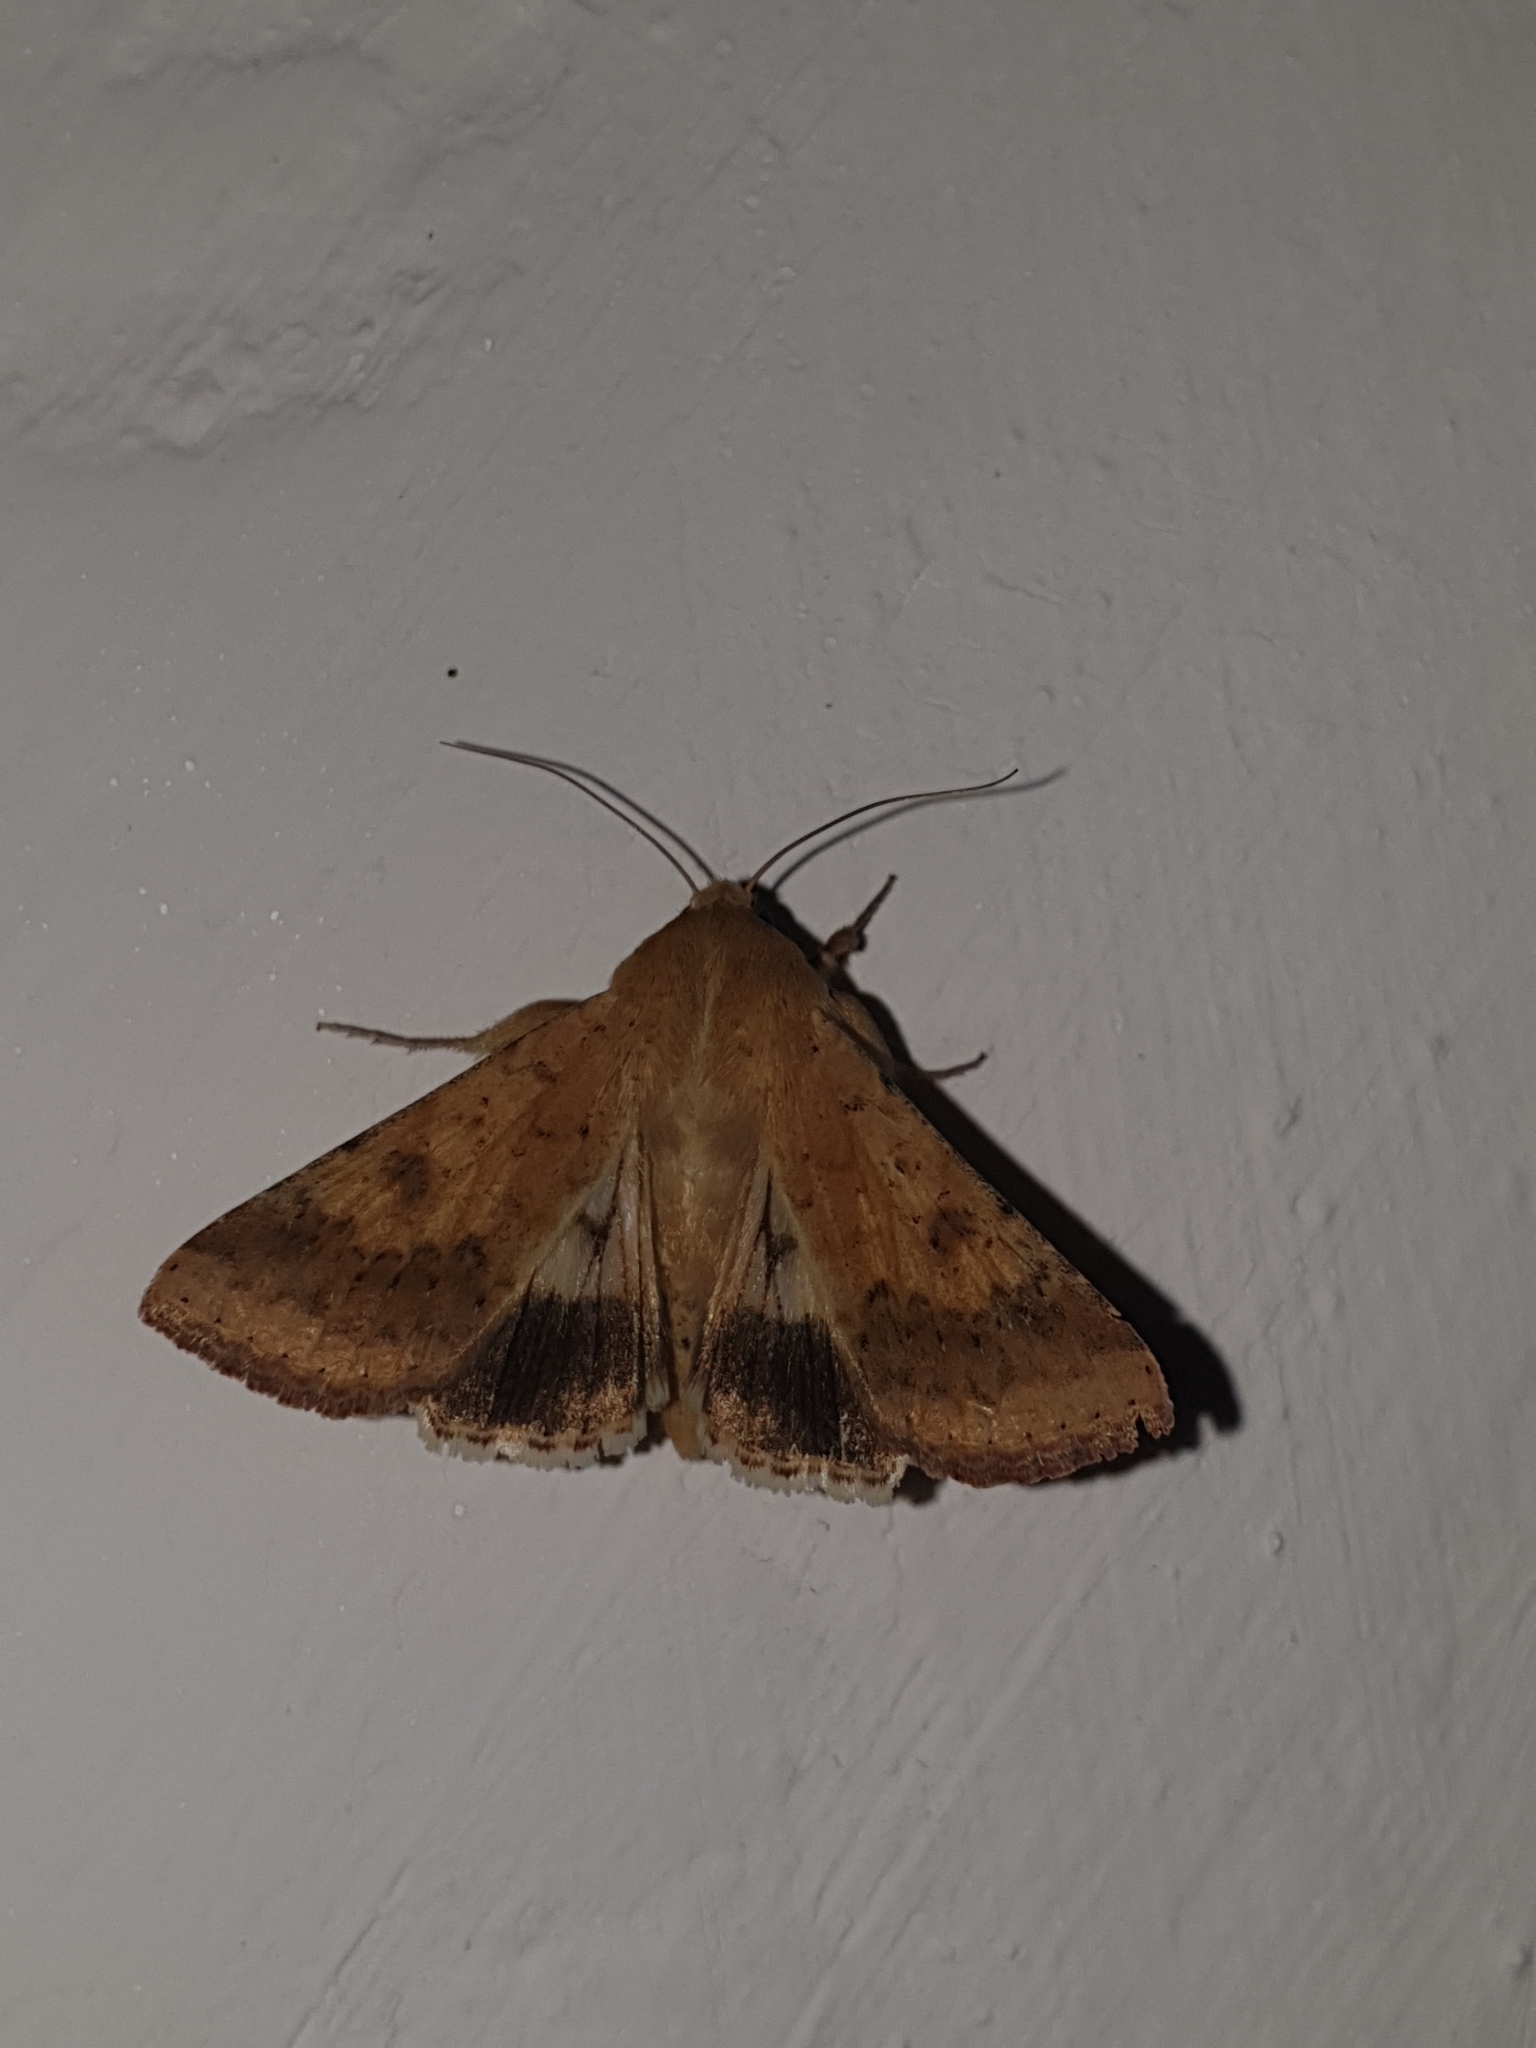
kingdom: Animalia
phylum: Arthropoda
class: Insecta
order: Lepidoptera
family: Noctuidae
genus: Helicoverpa
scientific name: Helicoverpa armigera
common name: Cotton bollworm
